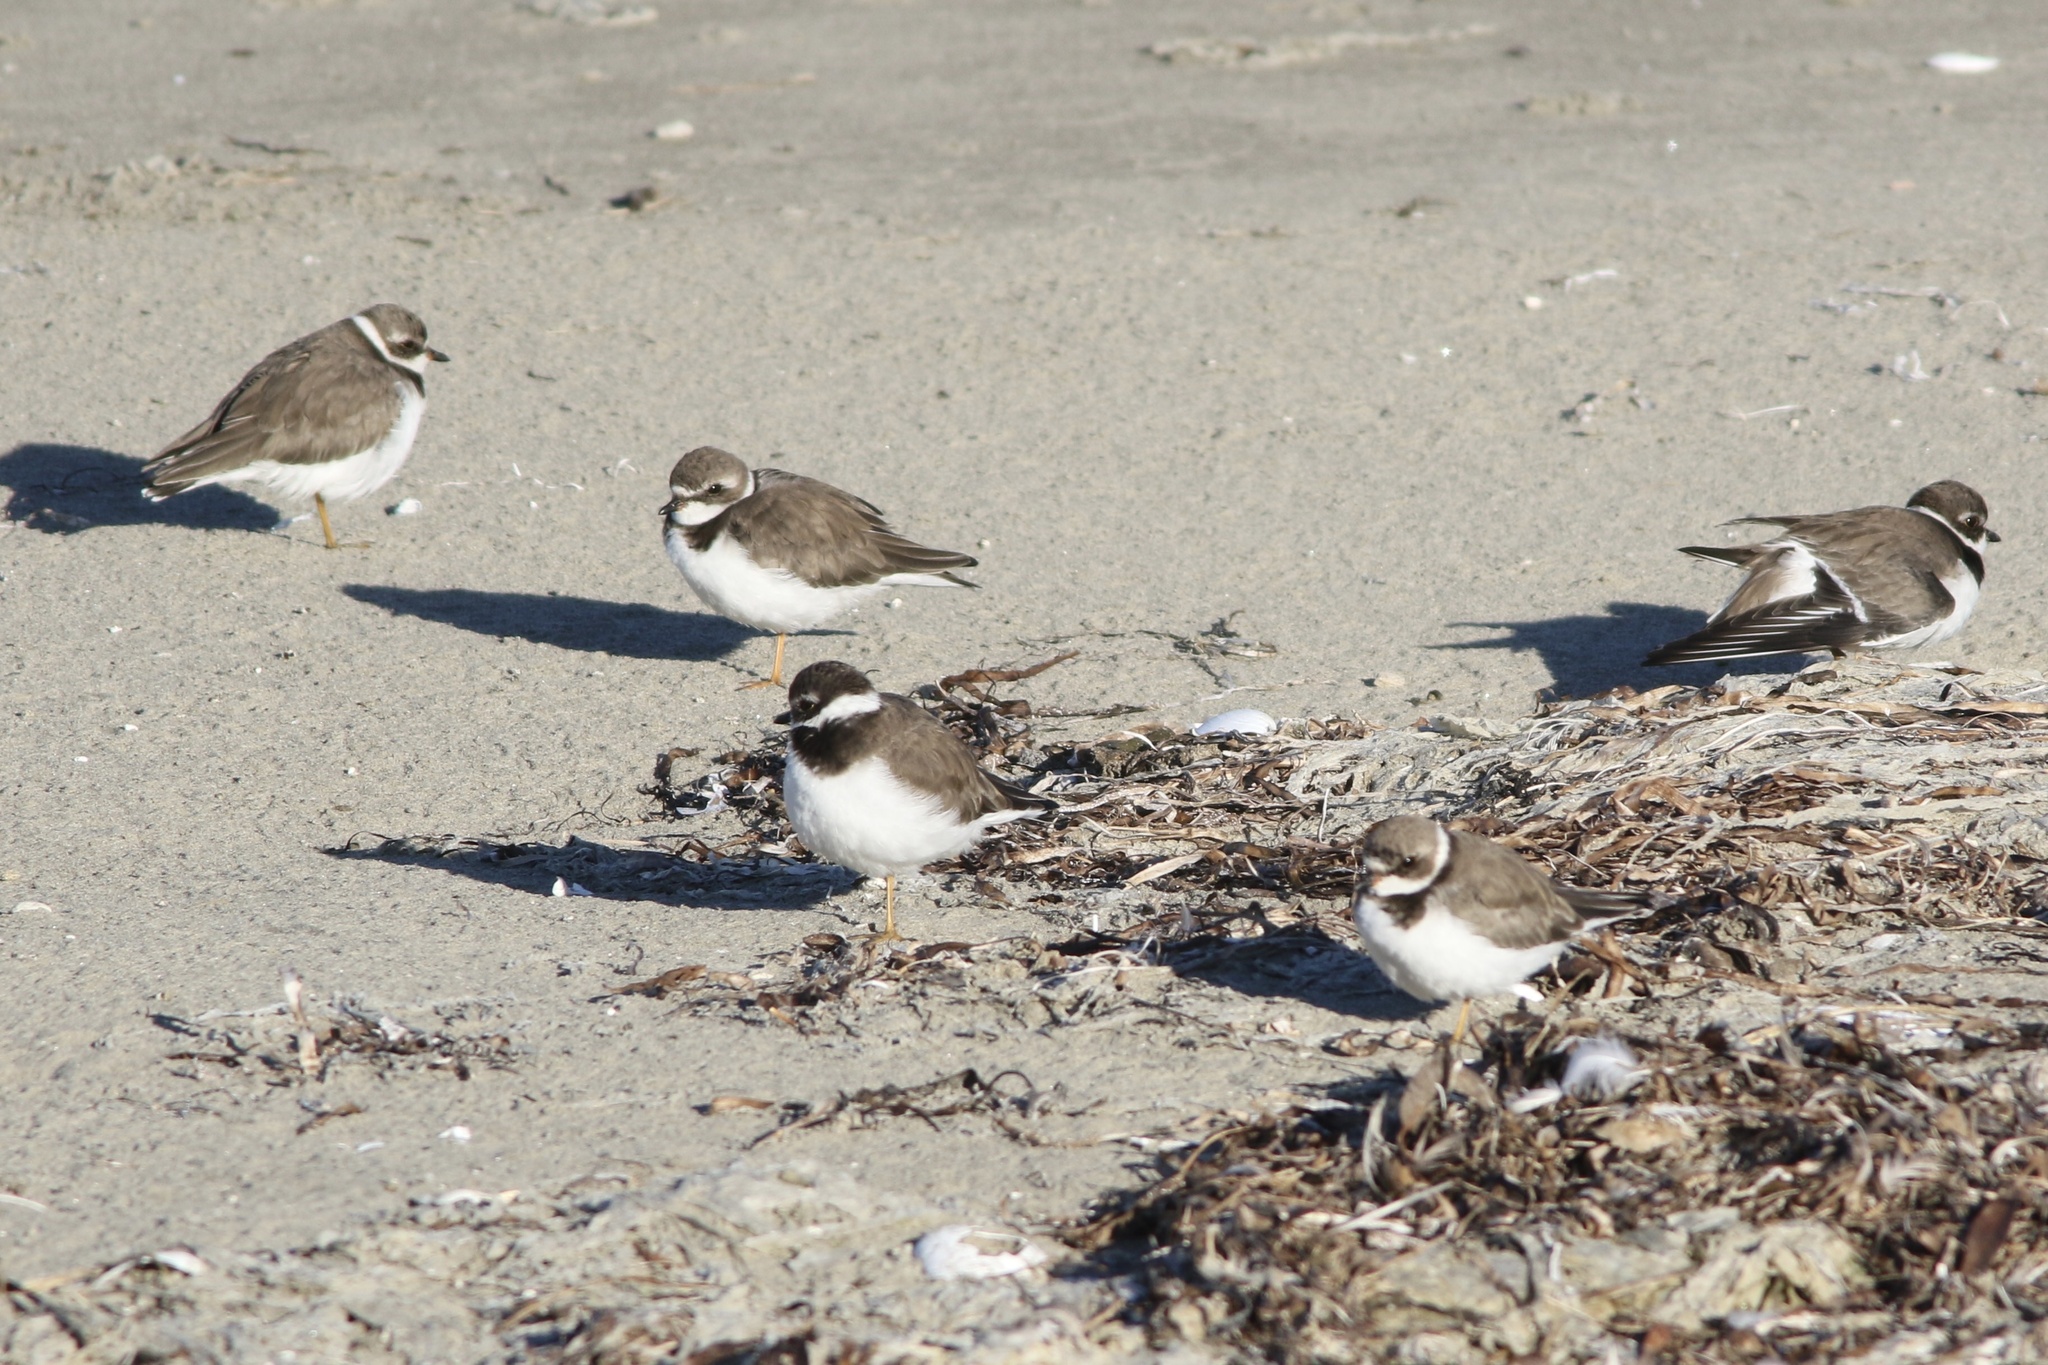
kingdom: Animalia
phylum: Chordata
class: Aves
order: Charadriiformes
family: Charadriidae
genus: Charadrius
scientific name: Charadrius semipalmatus
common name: Semipalmated plover
